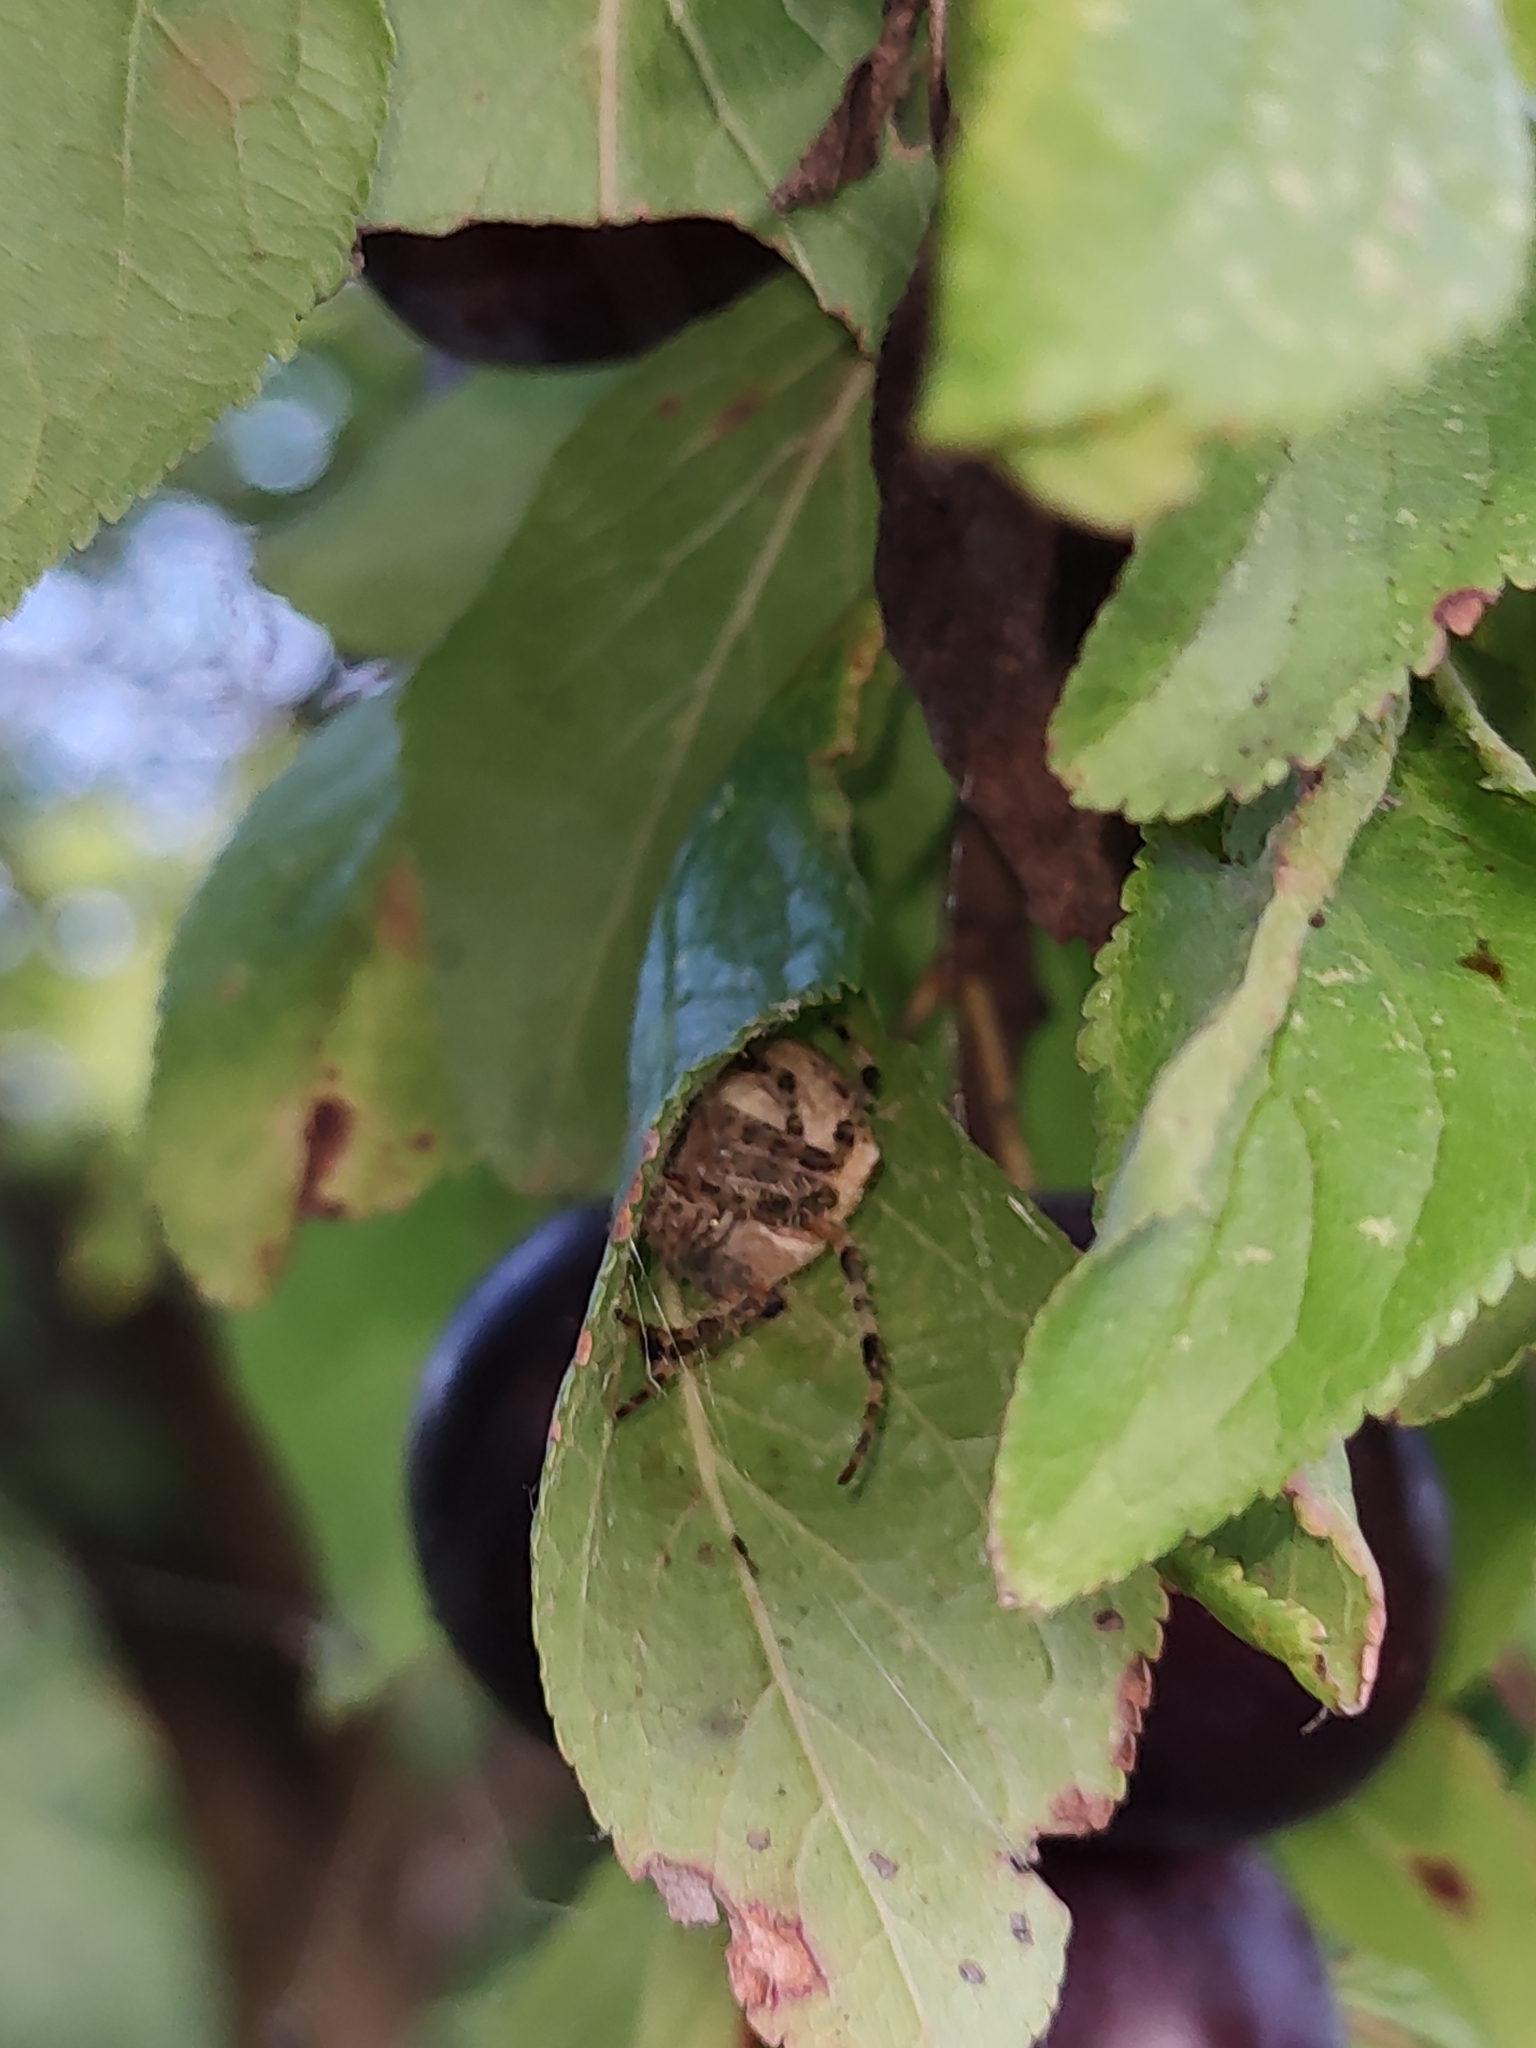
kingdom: Animalia
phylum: Arthropoda
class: Arachnida
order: Araneae
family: Araneidae
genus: Araneus
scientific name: Araneus diadematus
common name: Cross orbweaver
